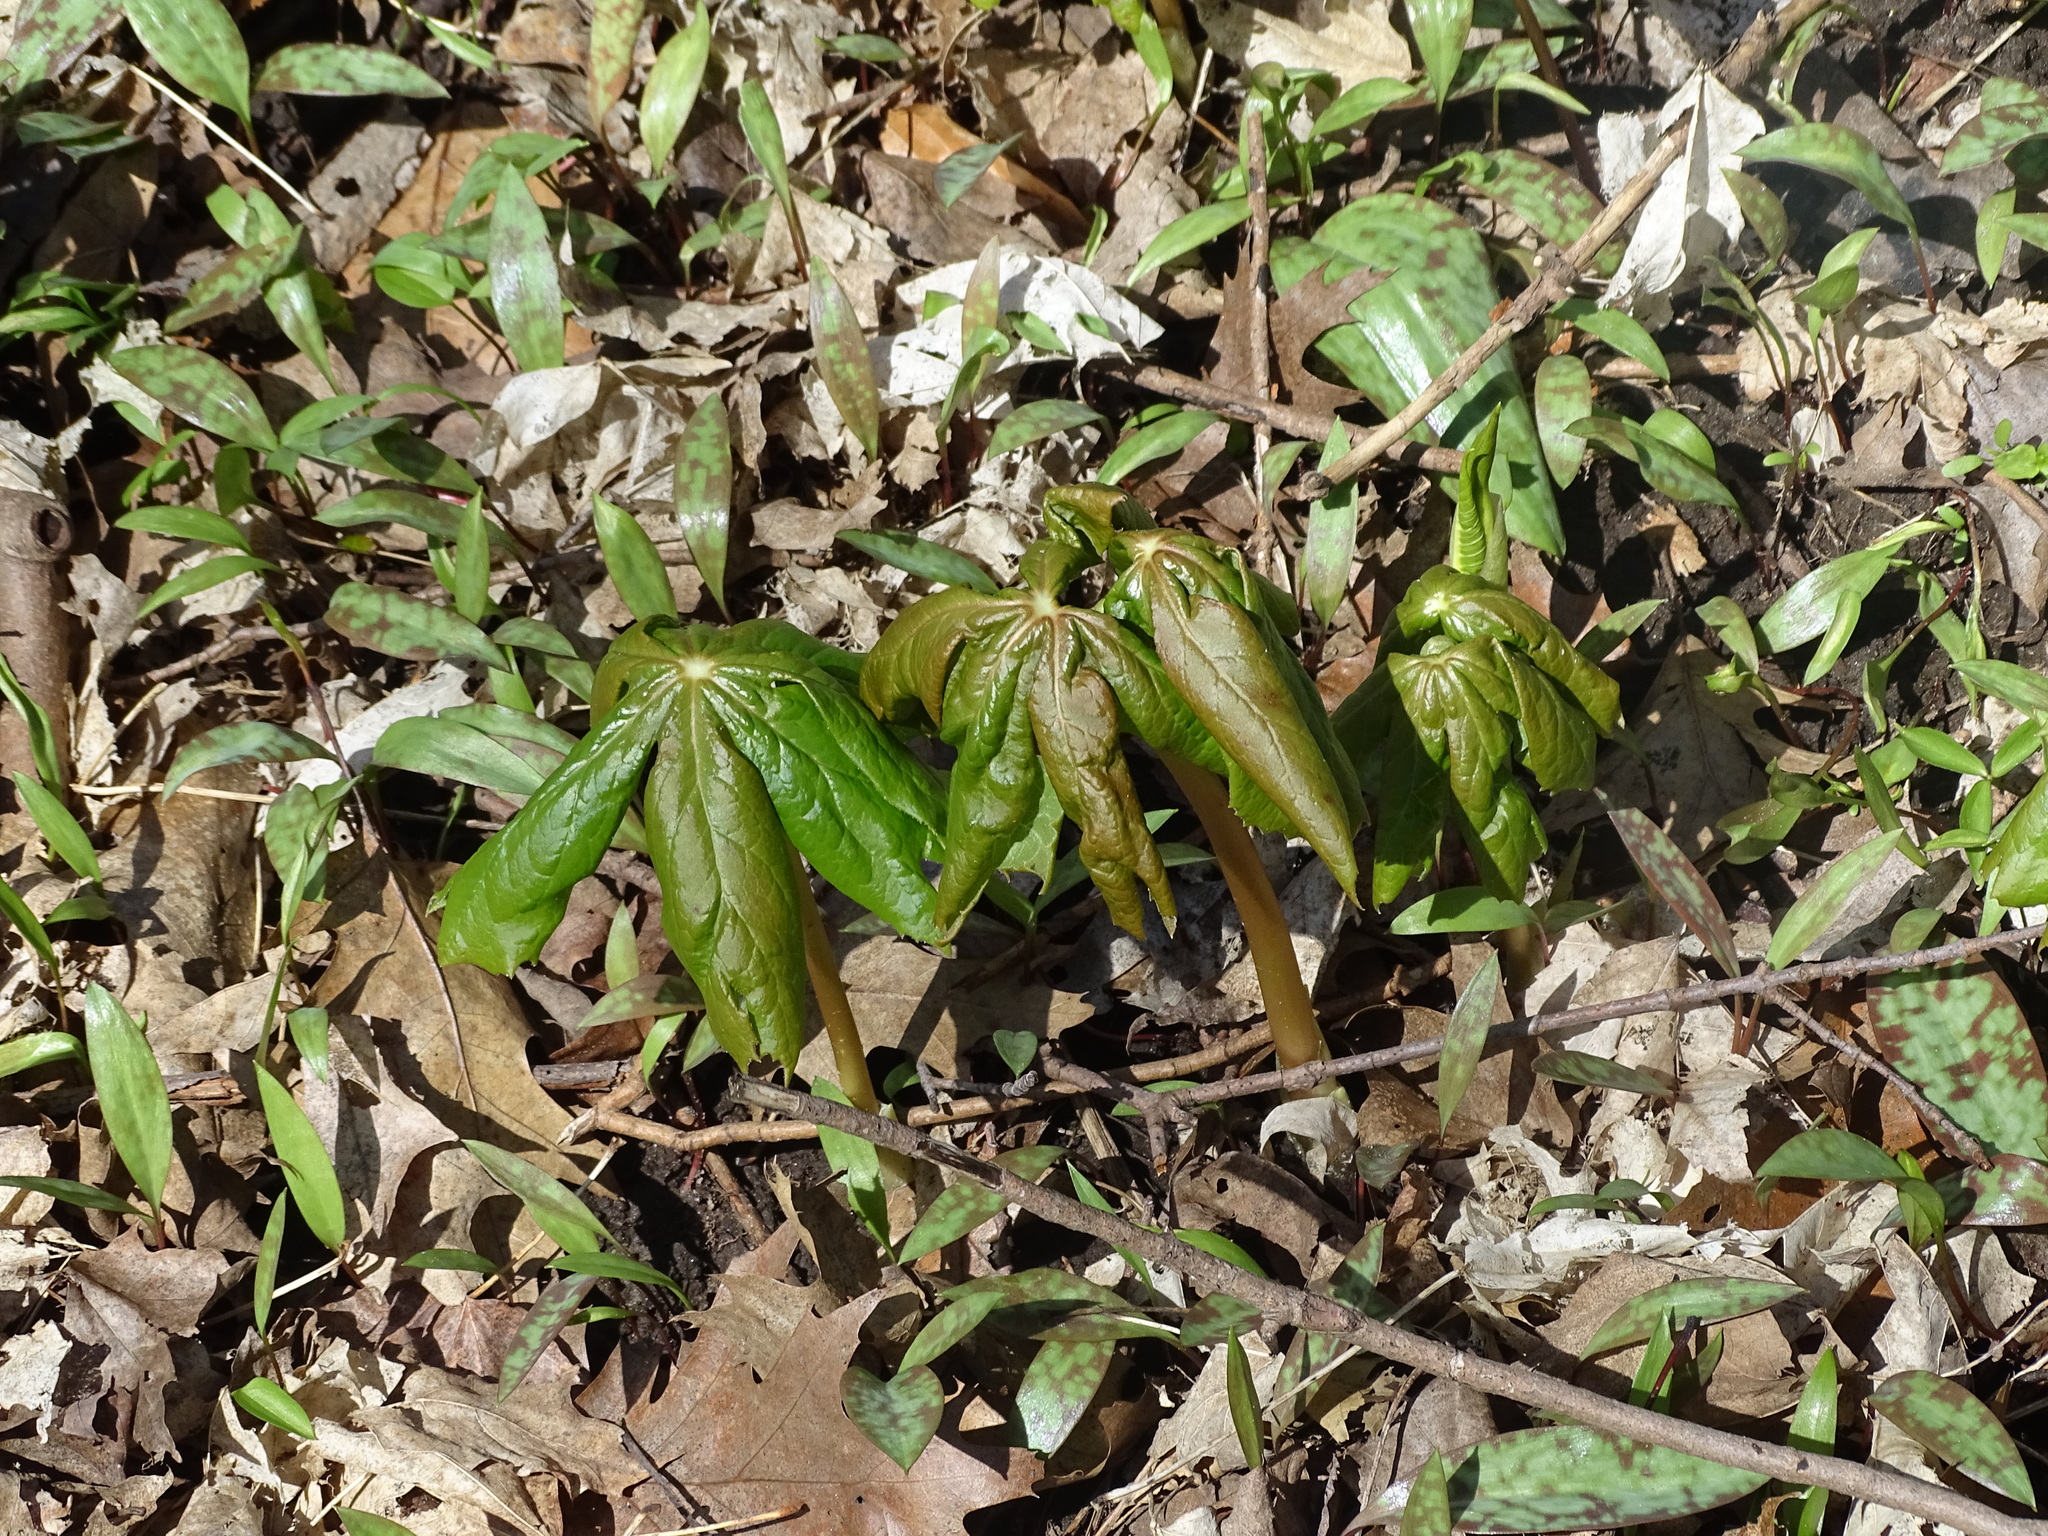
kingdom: Plantae
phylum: Tracheophyta
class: Magnoliopsida
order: Ranunculales
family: Berberidaceae
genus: Podophyllum
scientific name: Podophyllum peltatum
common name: Wild mandrake
